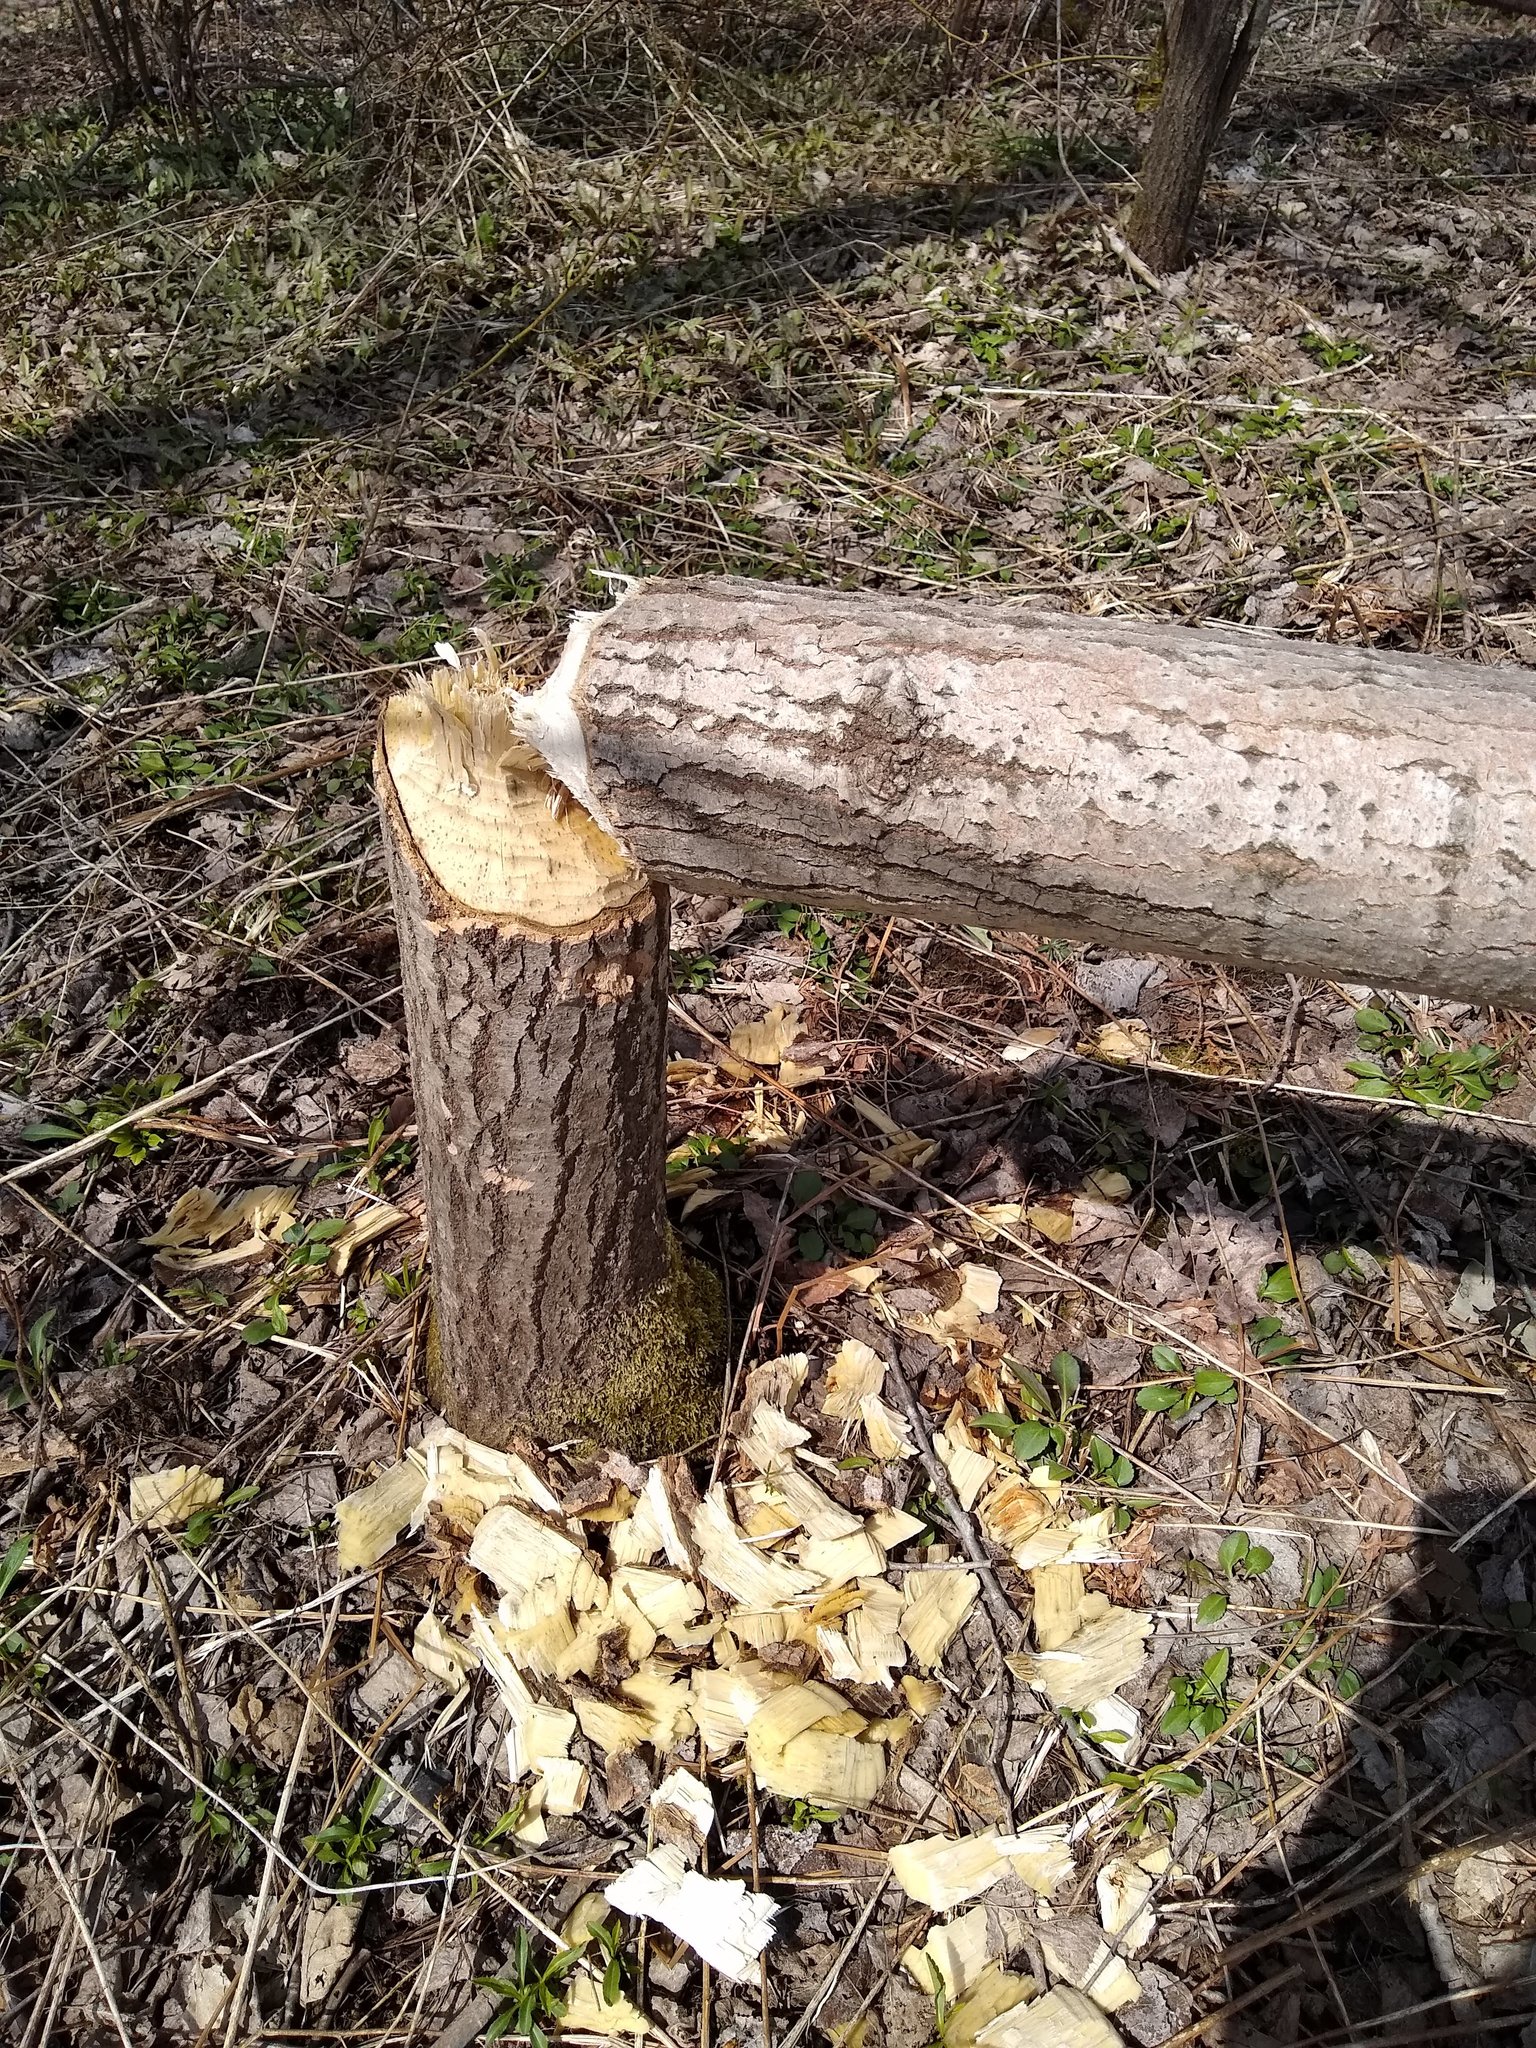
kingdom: Animalia
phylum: Chordata
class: Mammalia
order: Rodentia
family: Castoridae
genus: Castor
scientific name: Castor canadensis
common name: American beaver
